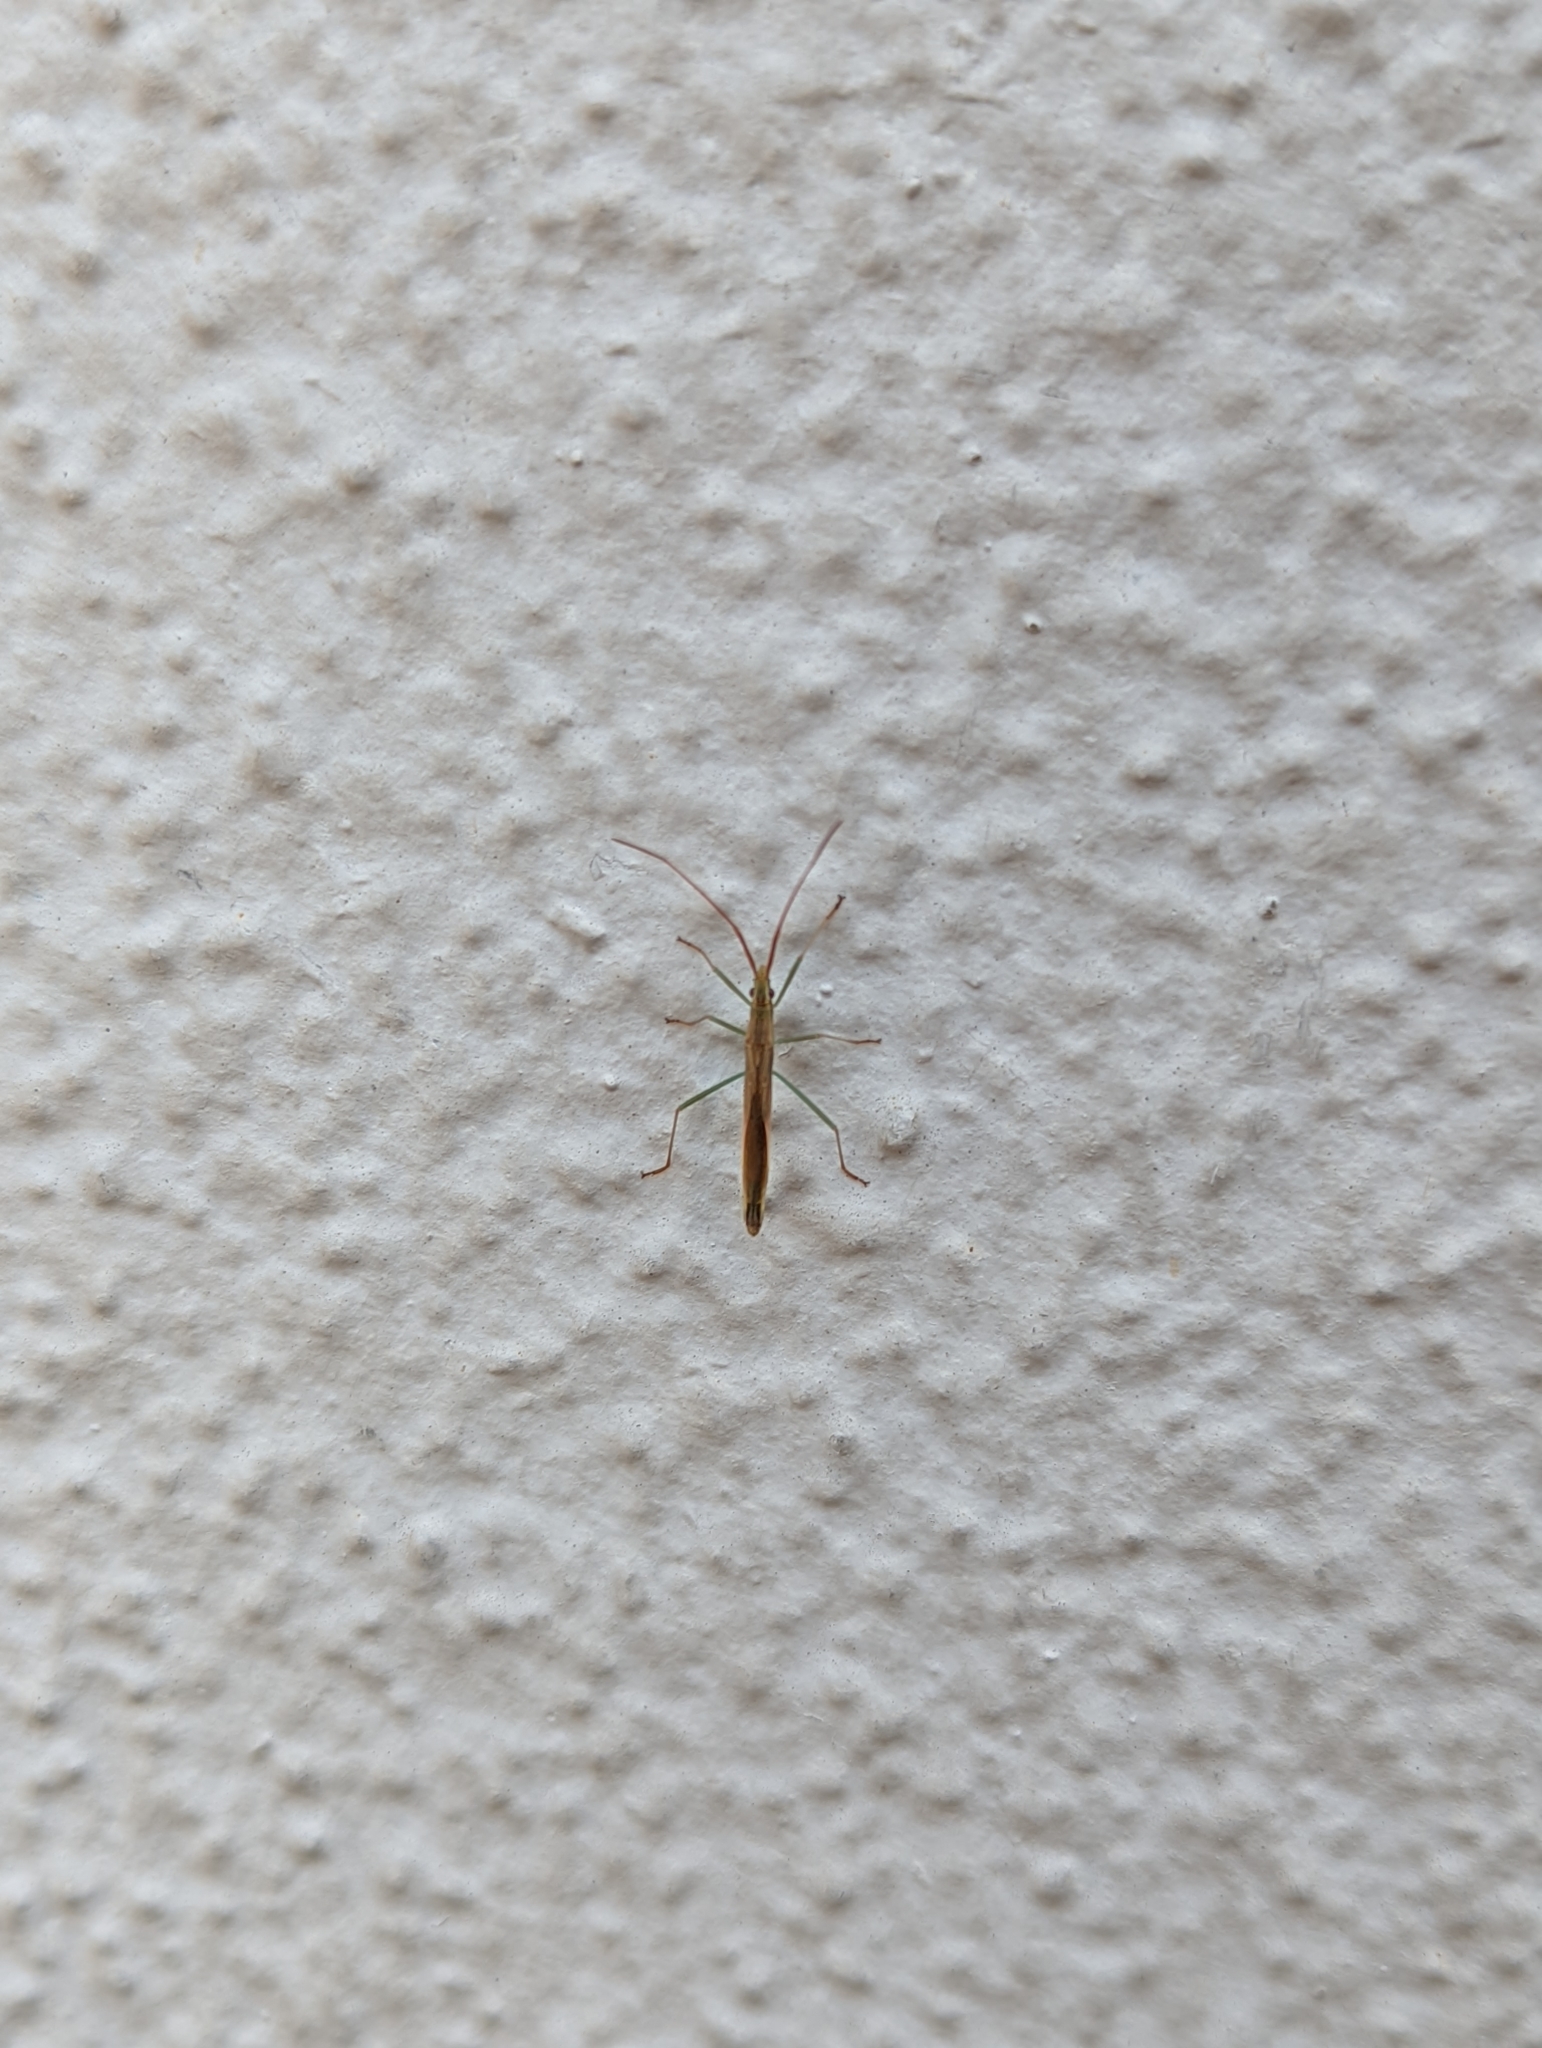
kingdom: Animalia
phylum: Arthropoda
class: Insecta
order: Hemiptera
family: Alydidae
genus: Mutusca
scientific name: Mutusca brevicornis
